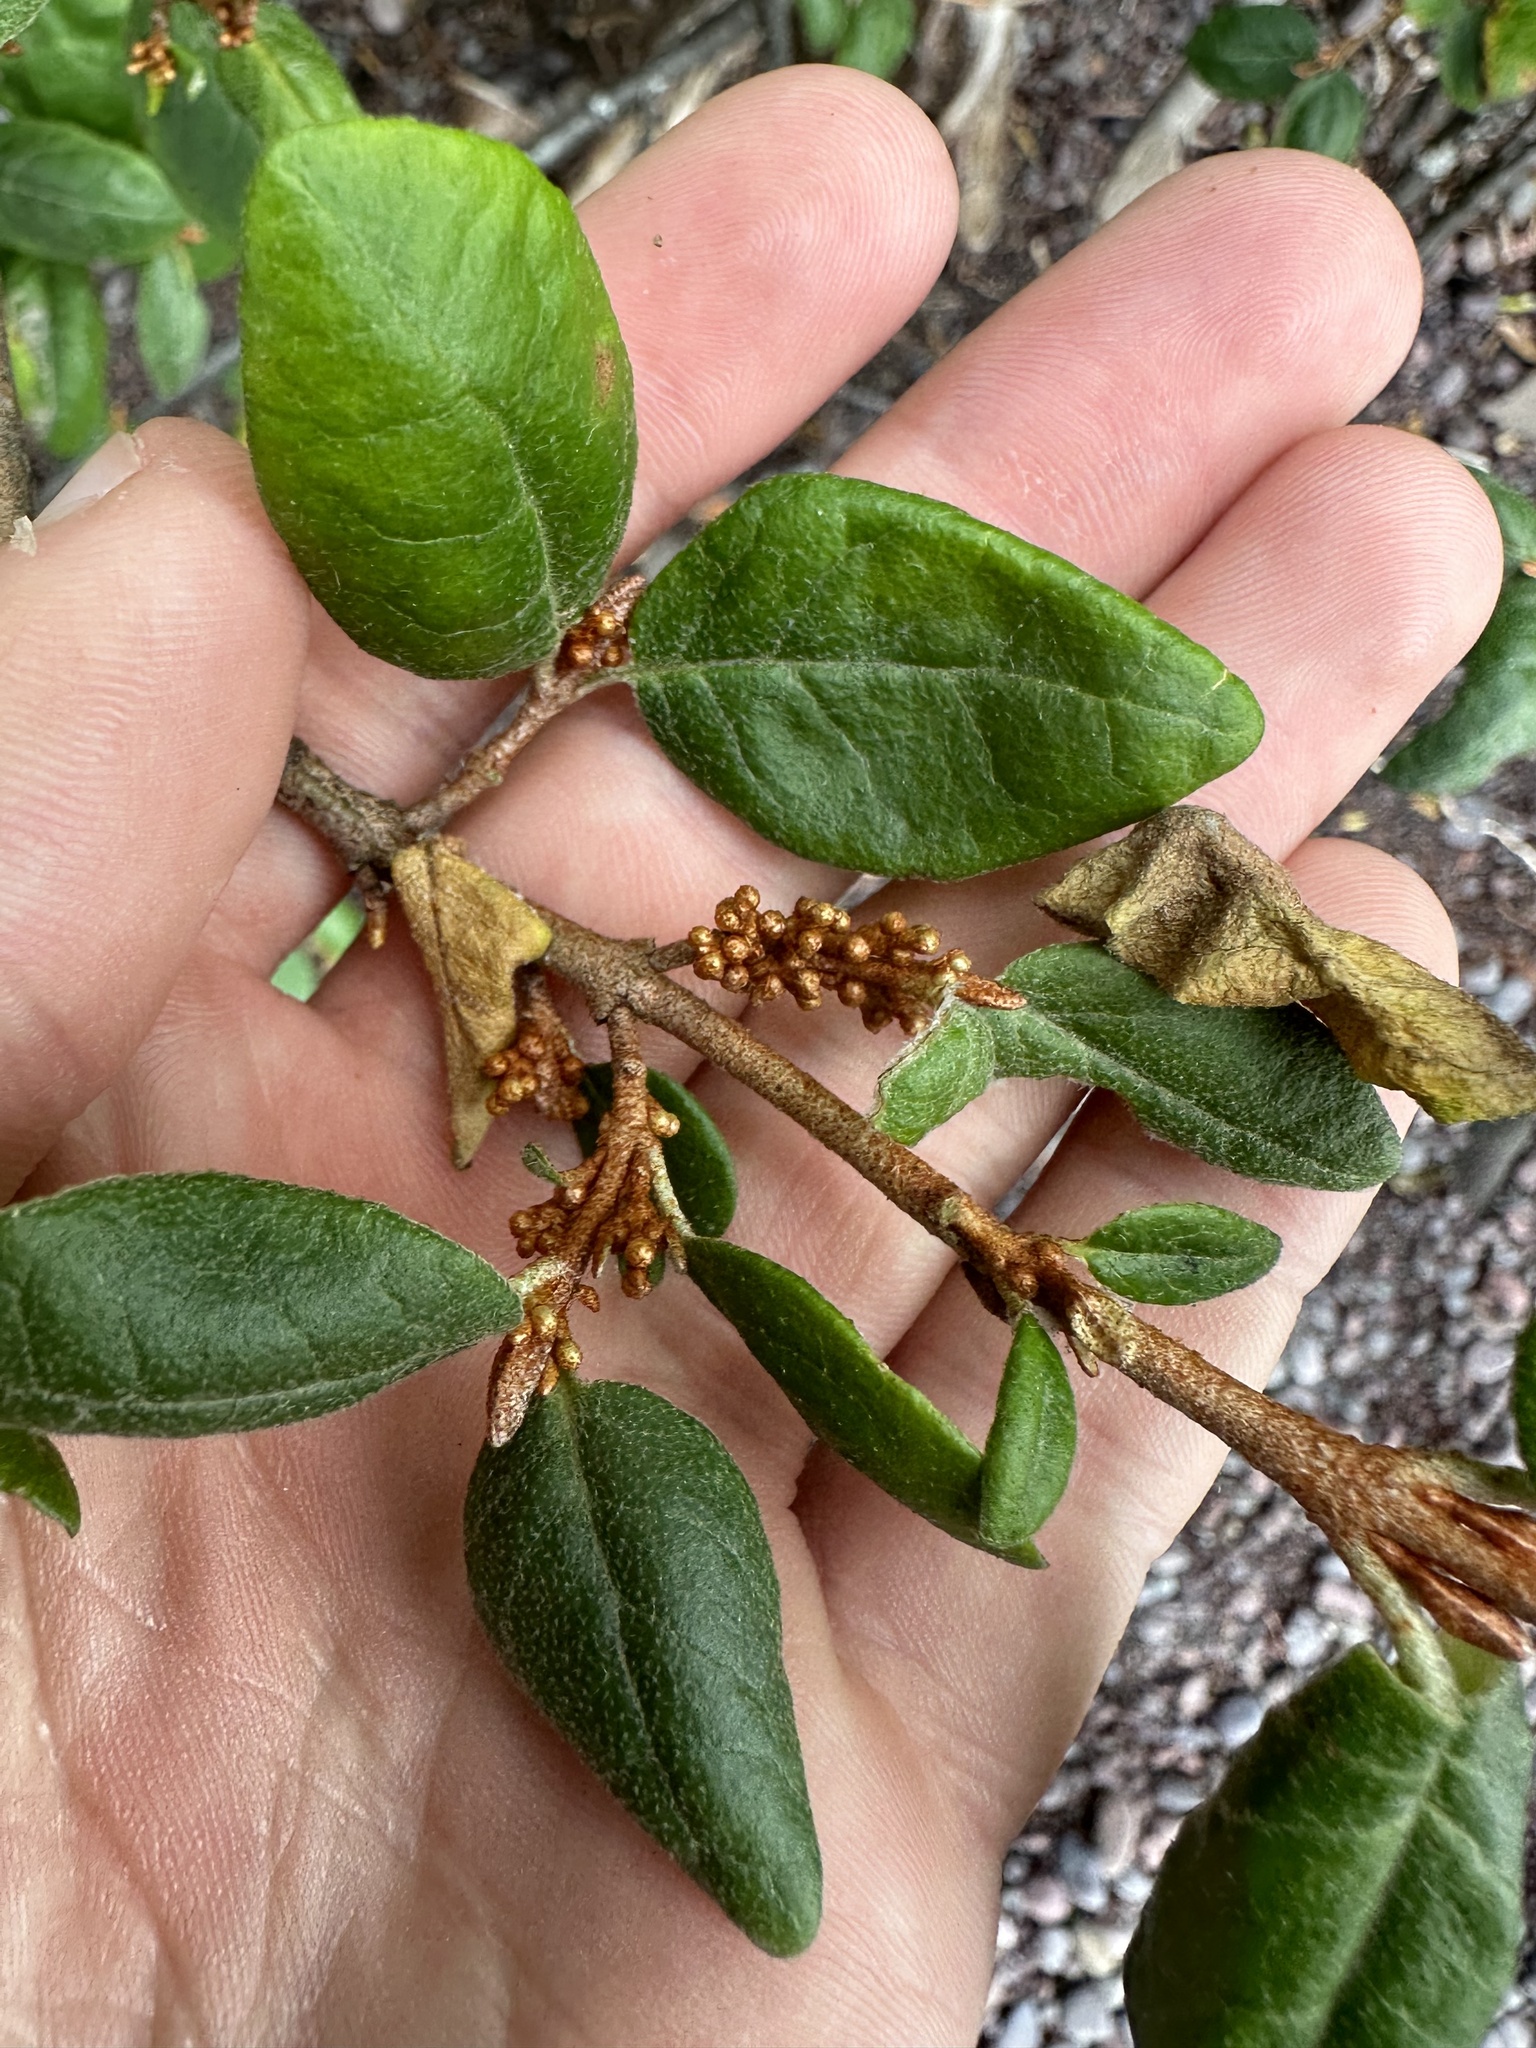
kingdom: Plantae
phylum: Tracheophyta
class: Magnoliopsida
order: Rosales
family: Elaeagnaceae
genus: Shepherdia
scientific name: Shepherdia canadensis
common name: Soapberry
